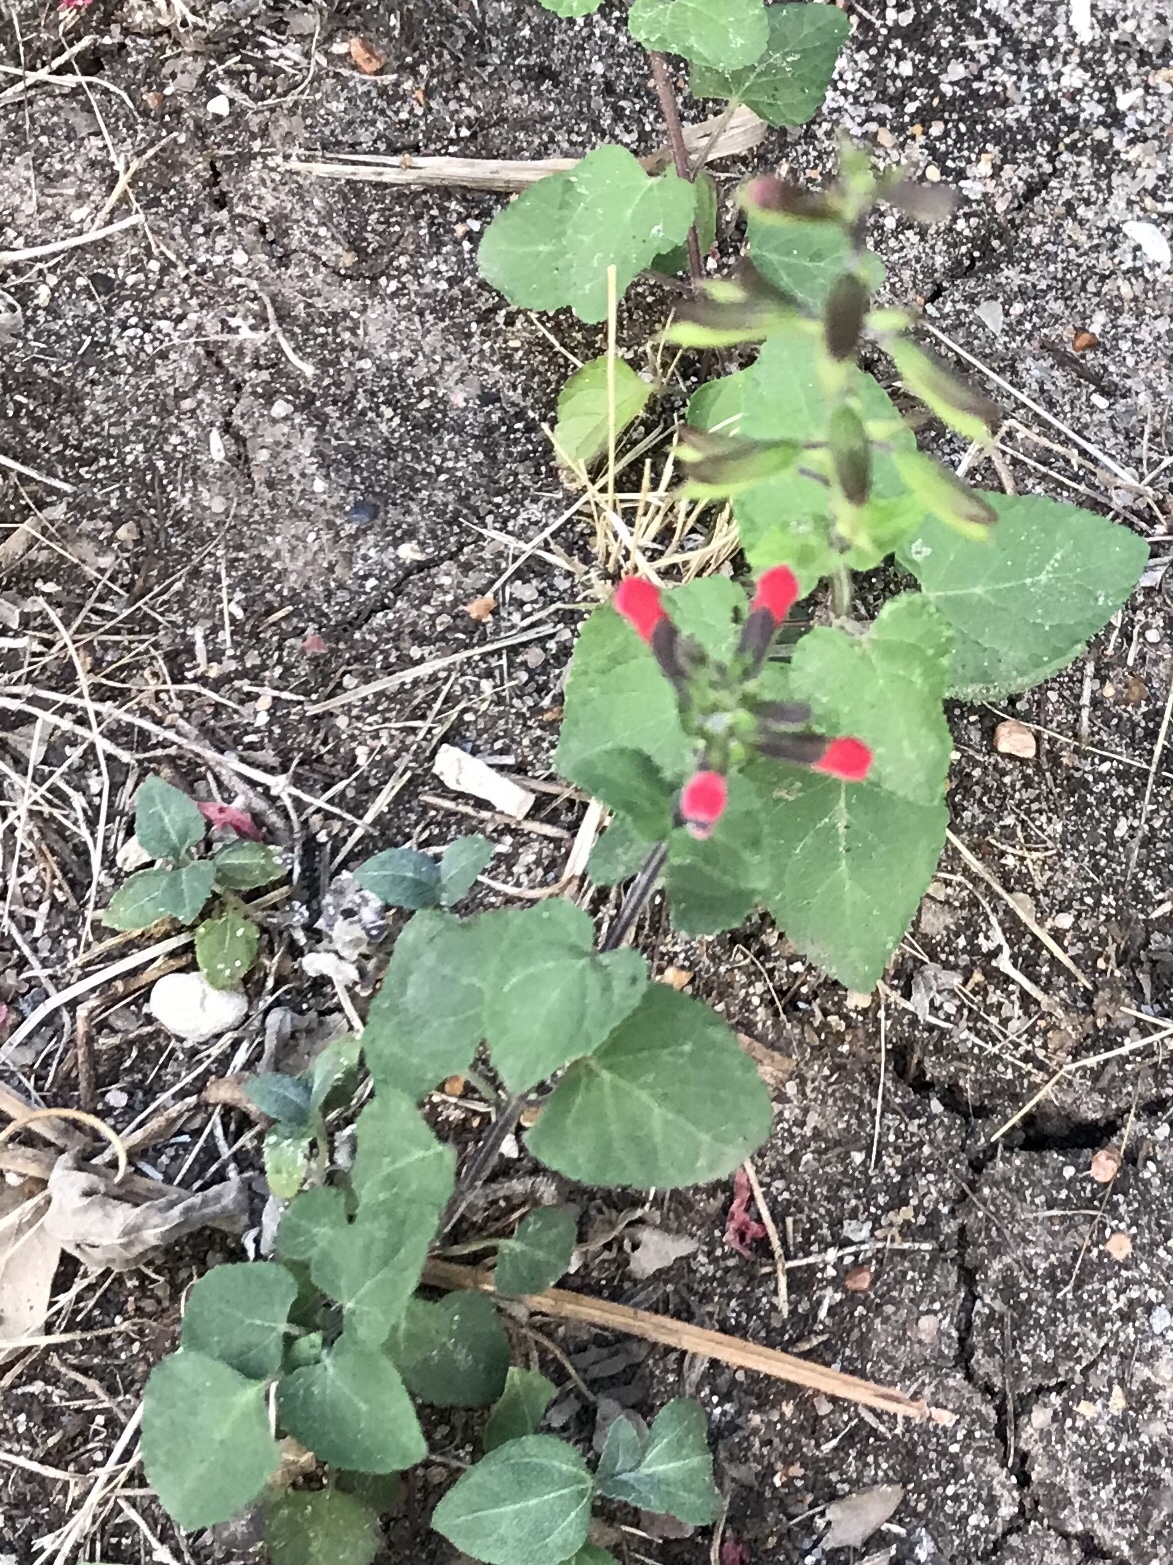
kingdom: Plantae
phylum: Tracheophyta
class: Magnoliopsida
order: Lamiales
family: Lamiaceae
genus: Salvia
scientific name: Salvia coccinea
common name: Blood sage
